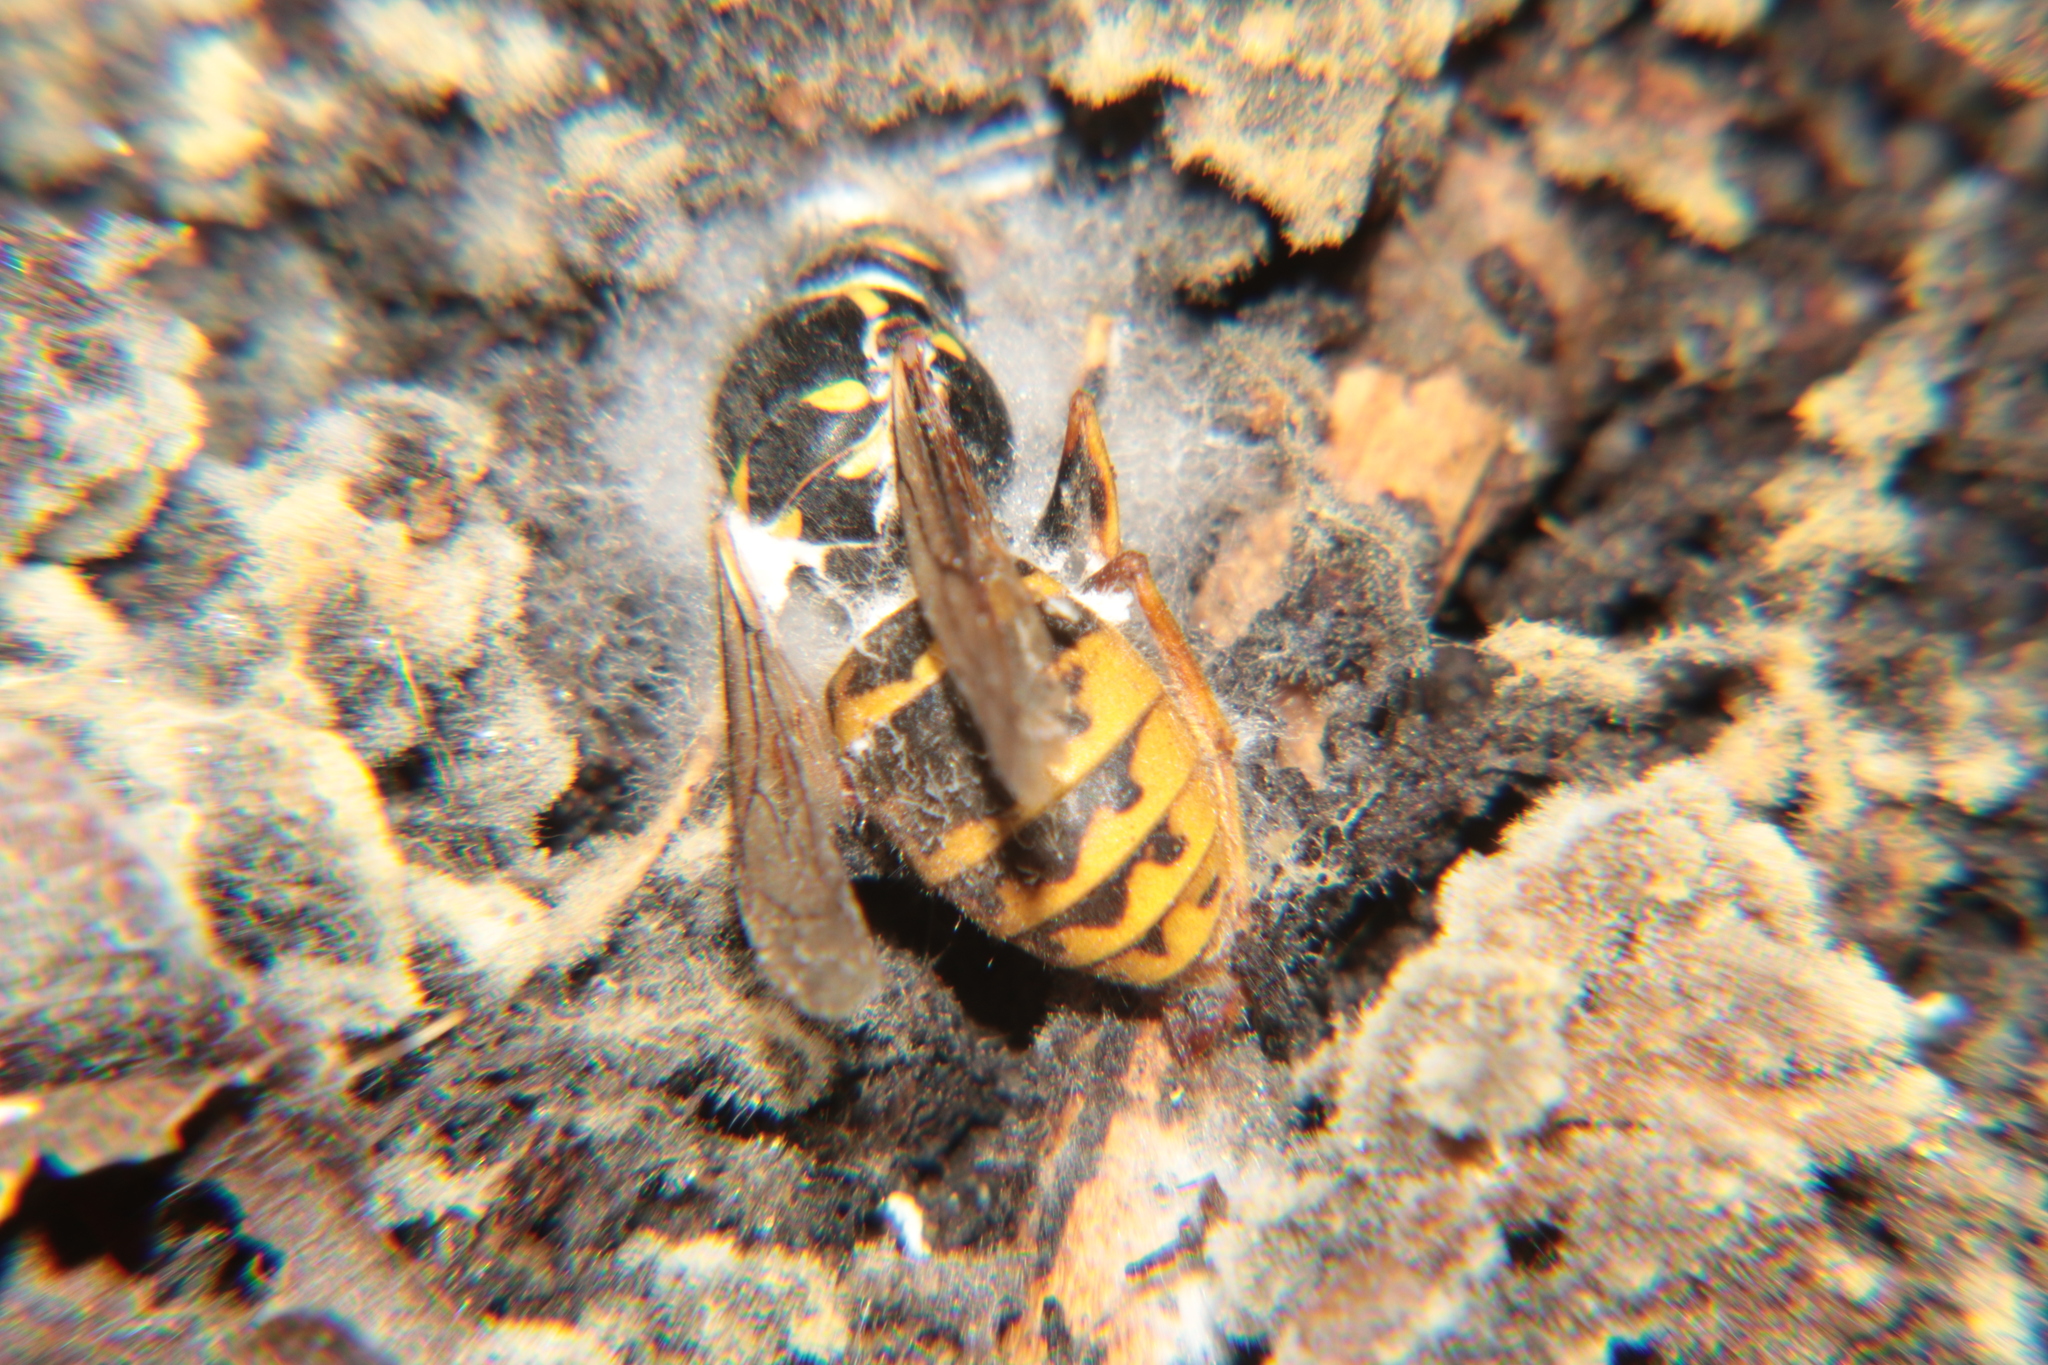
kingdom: Animalia
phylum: Arthropoda
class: Insecta
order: Hymenoptera
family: Vespidae
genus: Vespula
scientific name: Vespula vulgaris
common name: Common wasp
